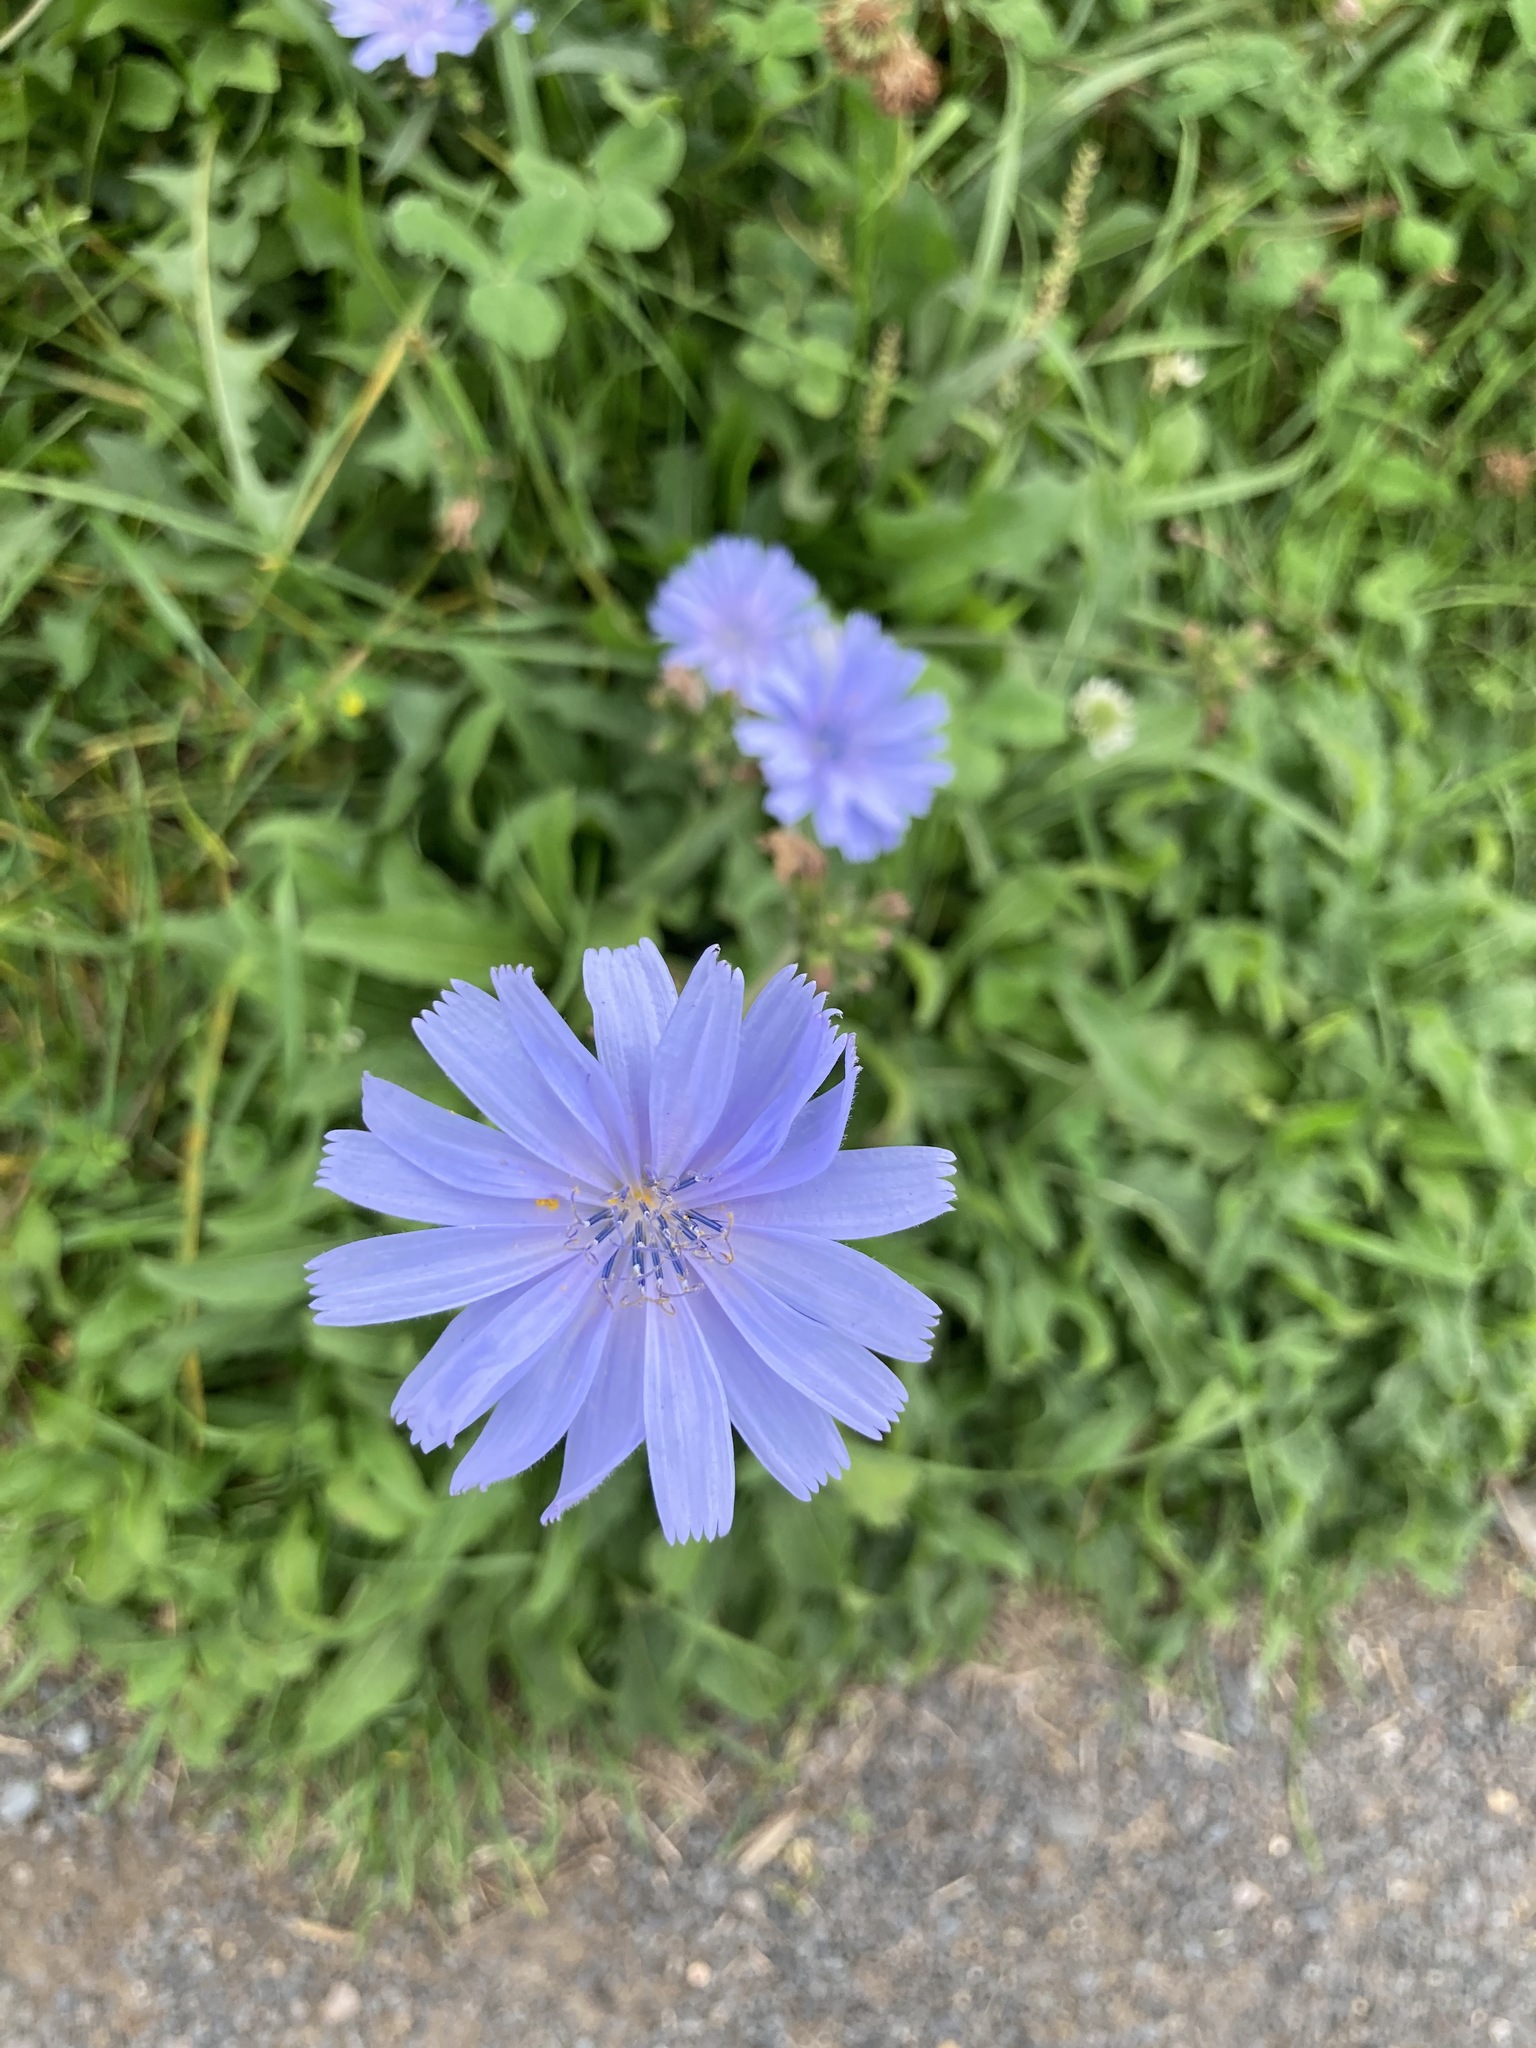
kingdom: Plantae
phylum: Tracheophyta
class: Magnoliopsida
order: Asterales
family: Asteraceae
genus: Cichorium
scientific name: Cichorium intybus
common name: Chicory
